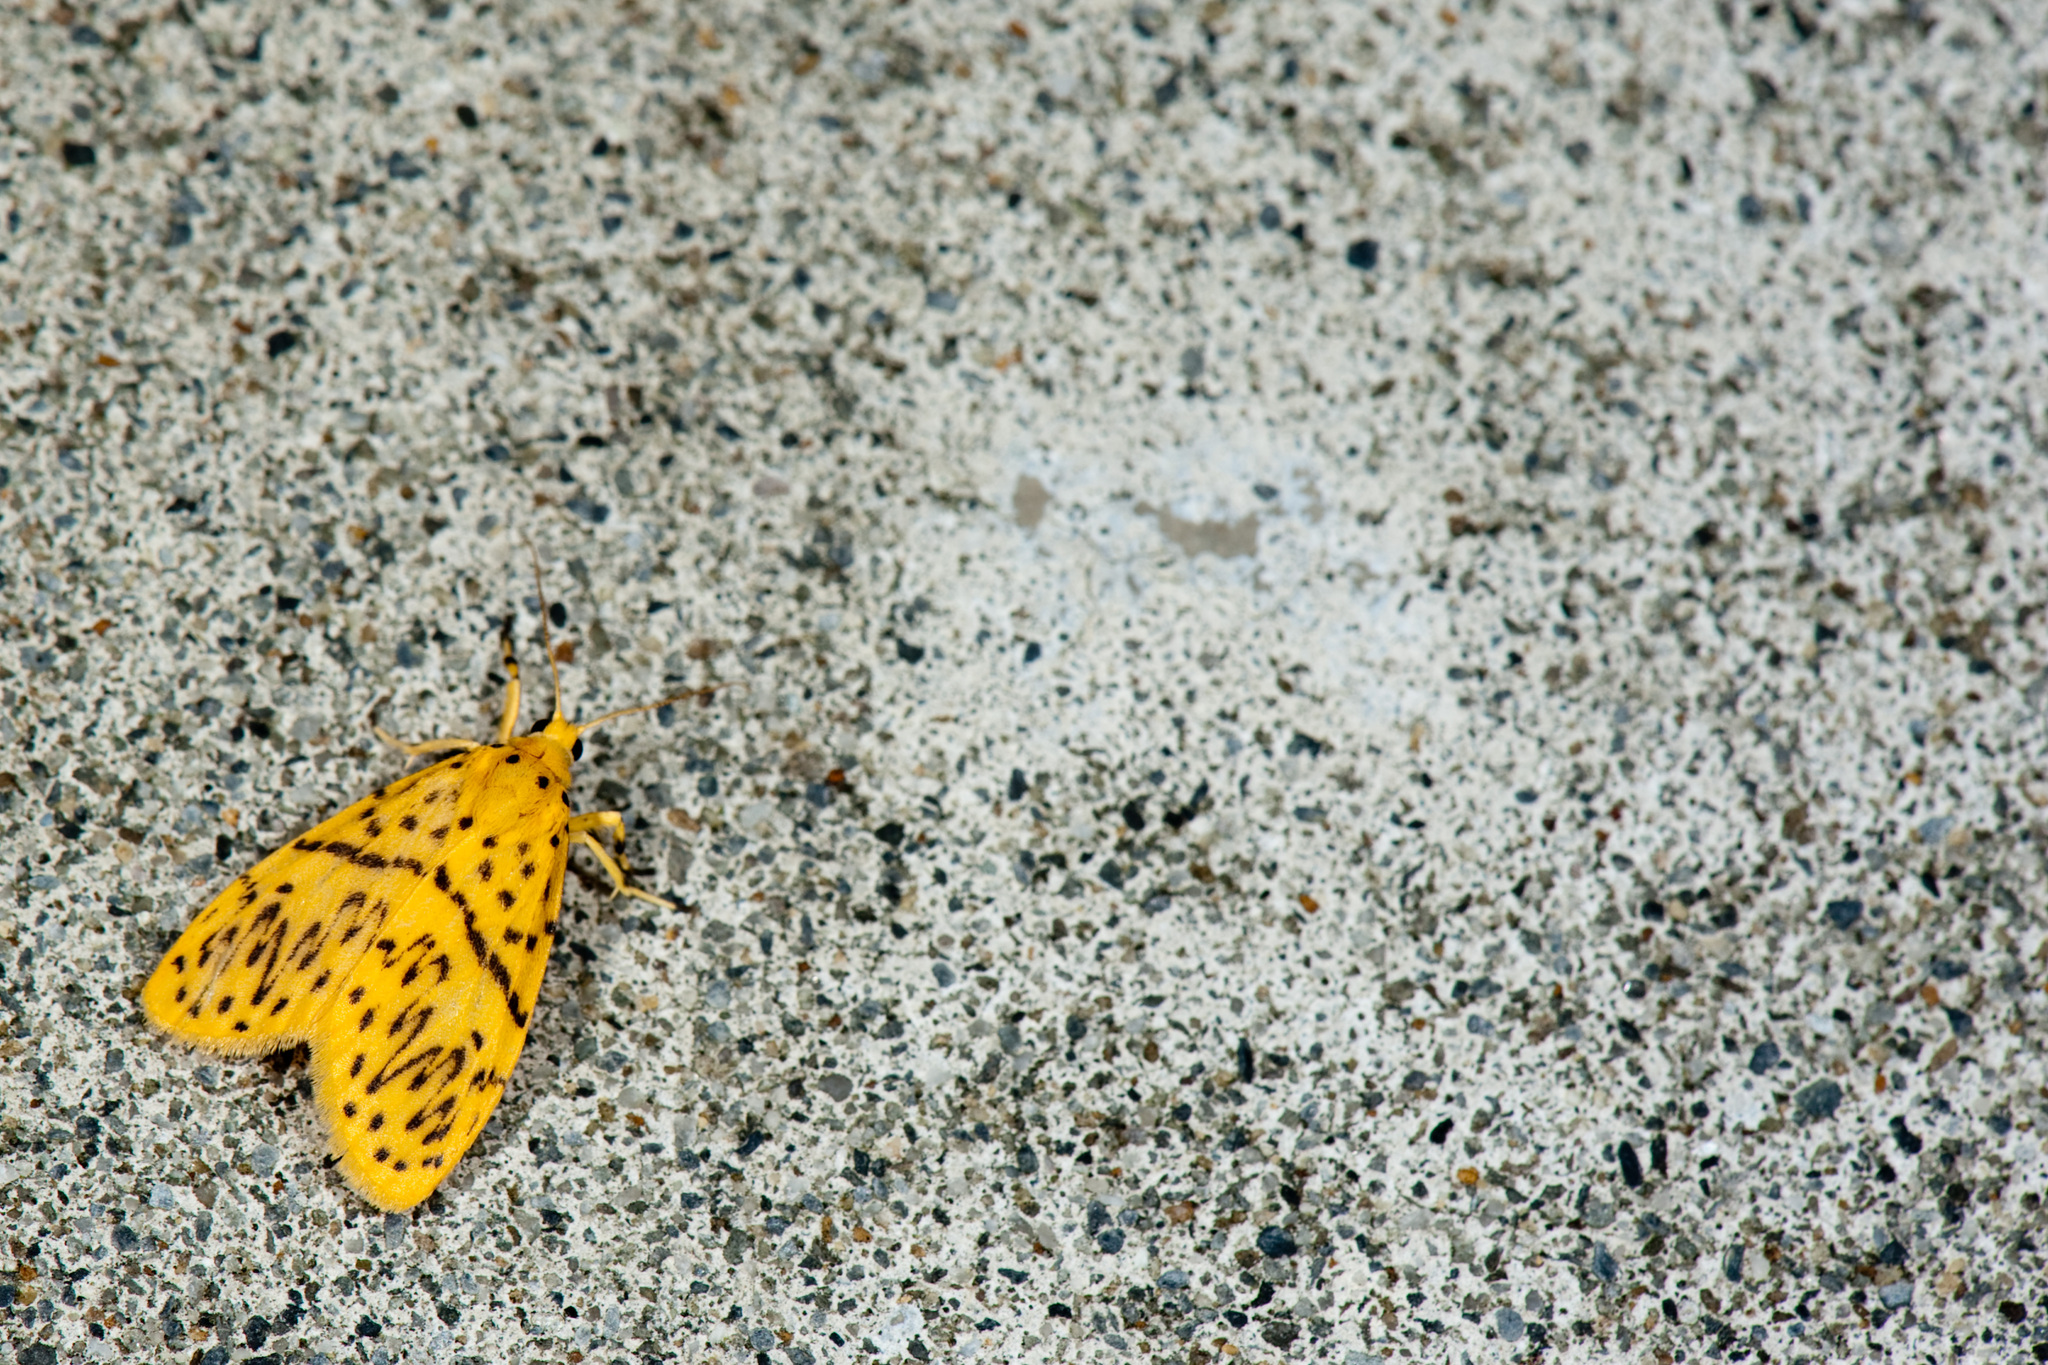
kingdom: Animalia
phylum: Arthropoda
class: Insecta
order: Lepidoptera
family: Erebidae
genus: Huangilene
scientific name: Huangilene alikangiae
